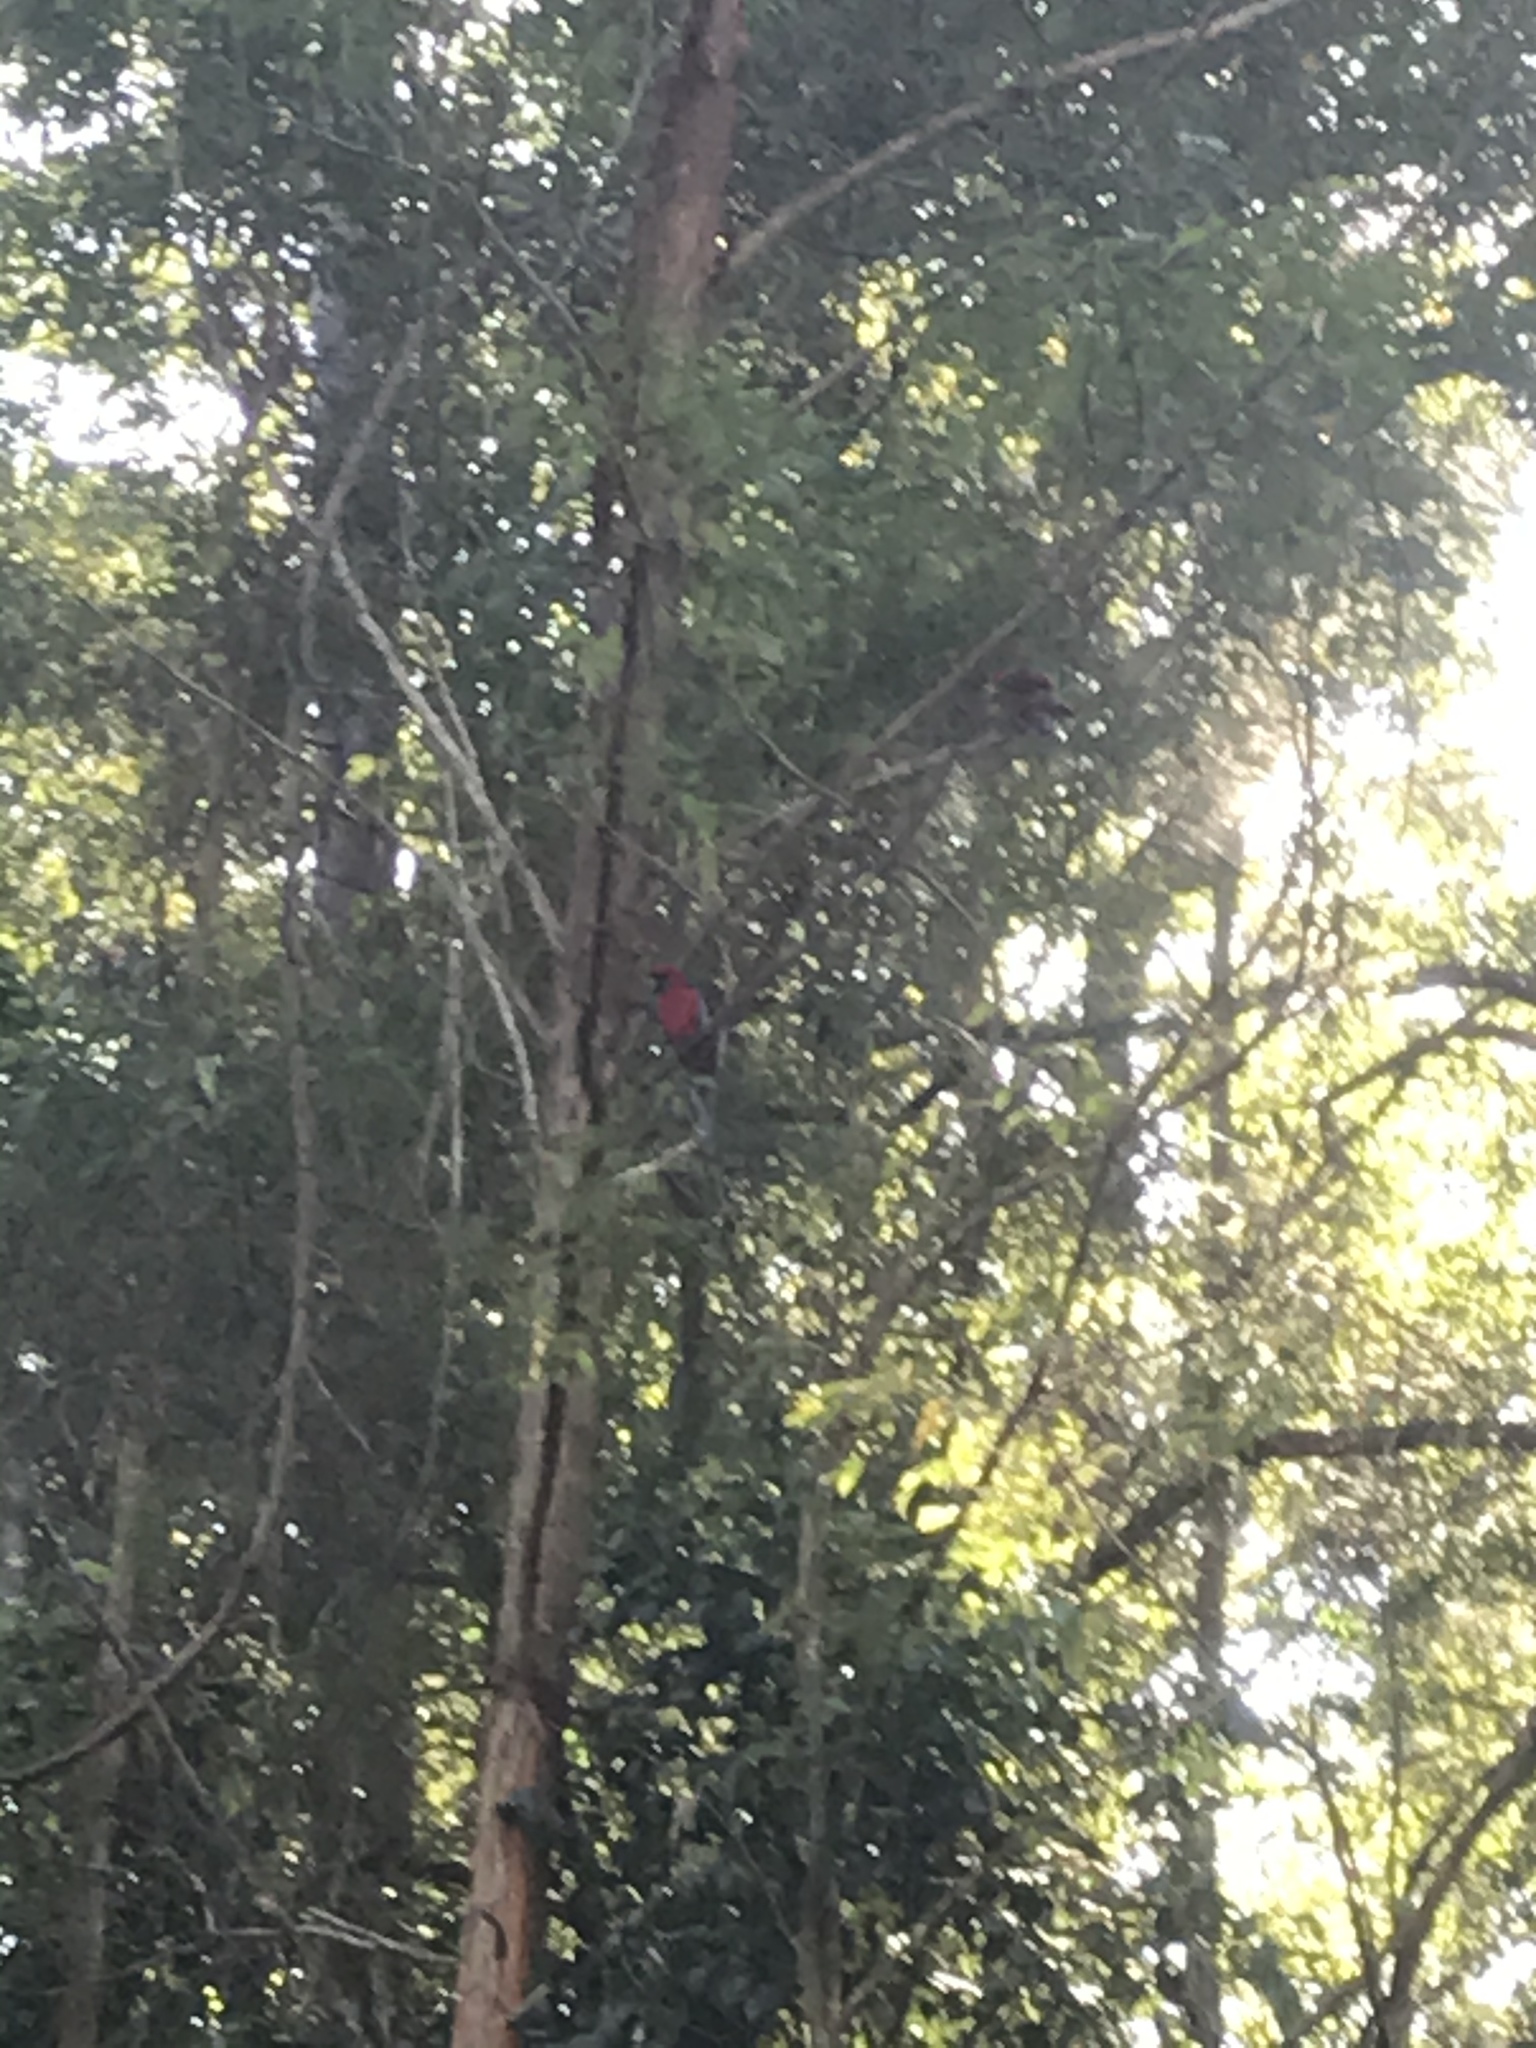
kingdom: Animalia
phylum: Chordata
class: Aves
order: Psittaciformes
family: Psittacidae
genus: Platycercus
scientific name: Platycercus elegans
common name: Crimson rosella
